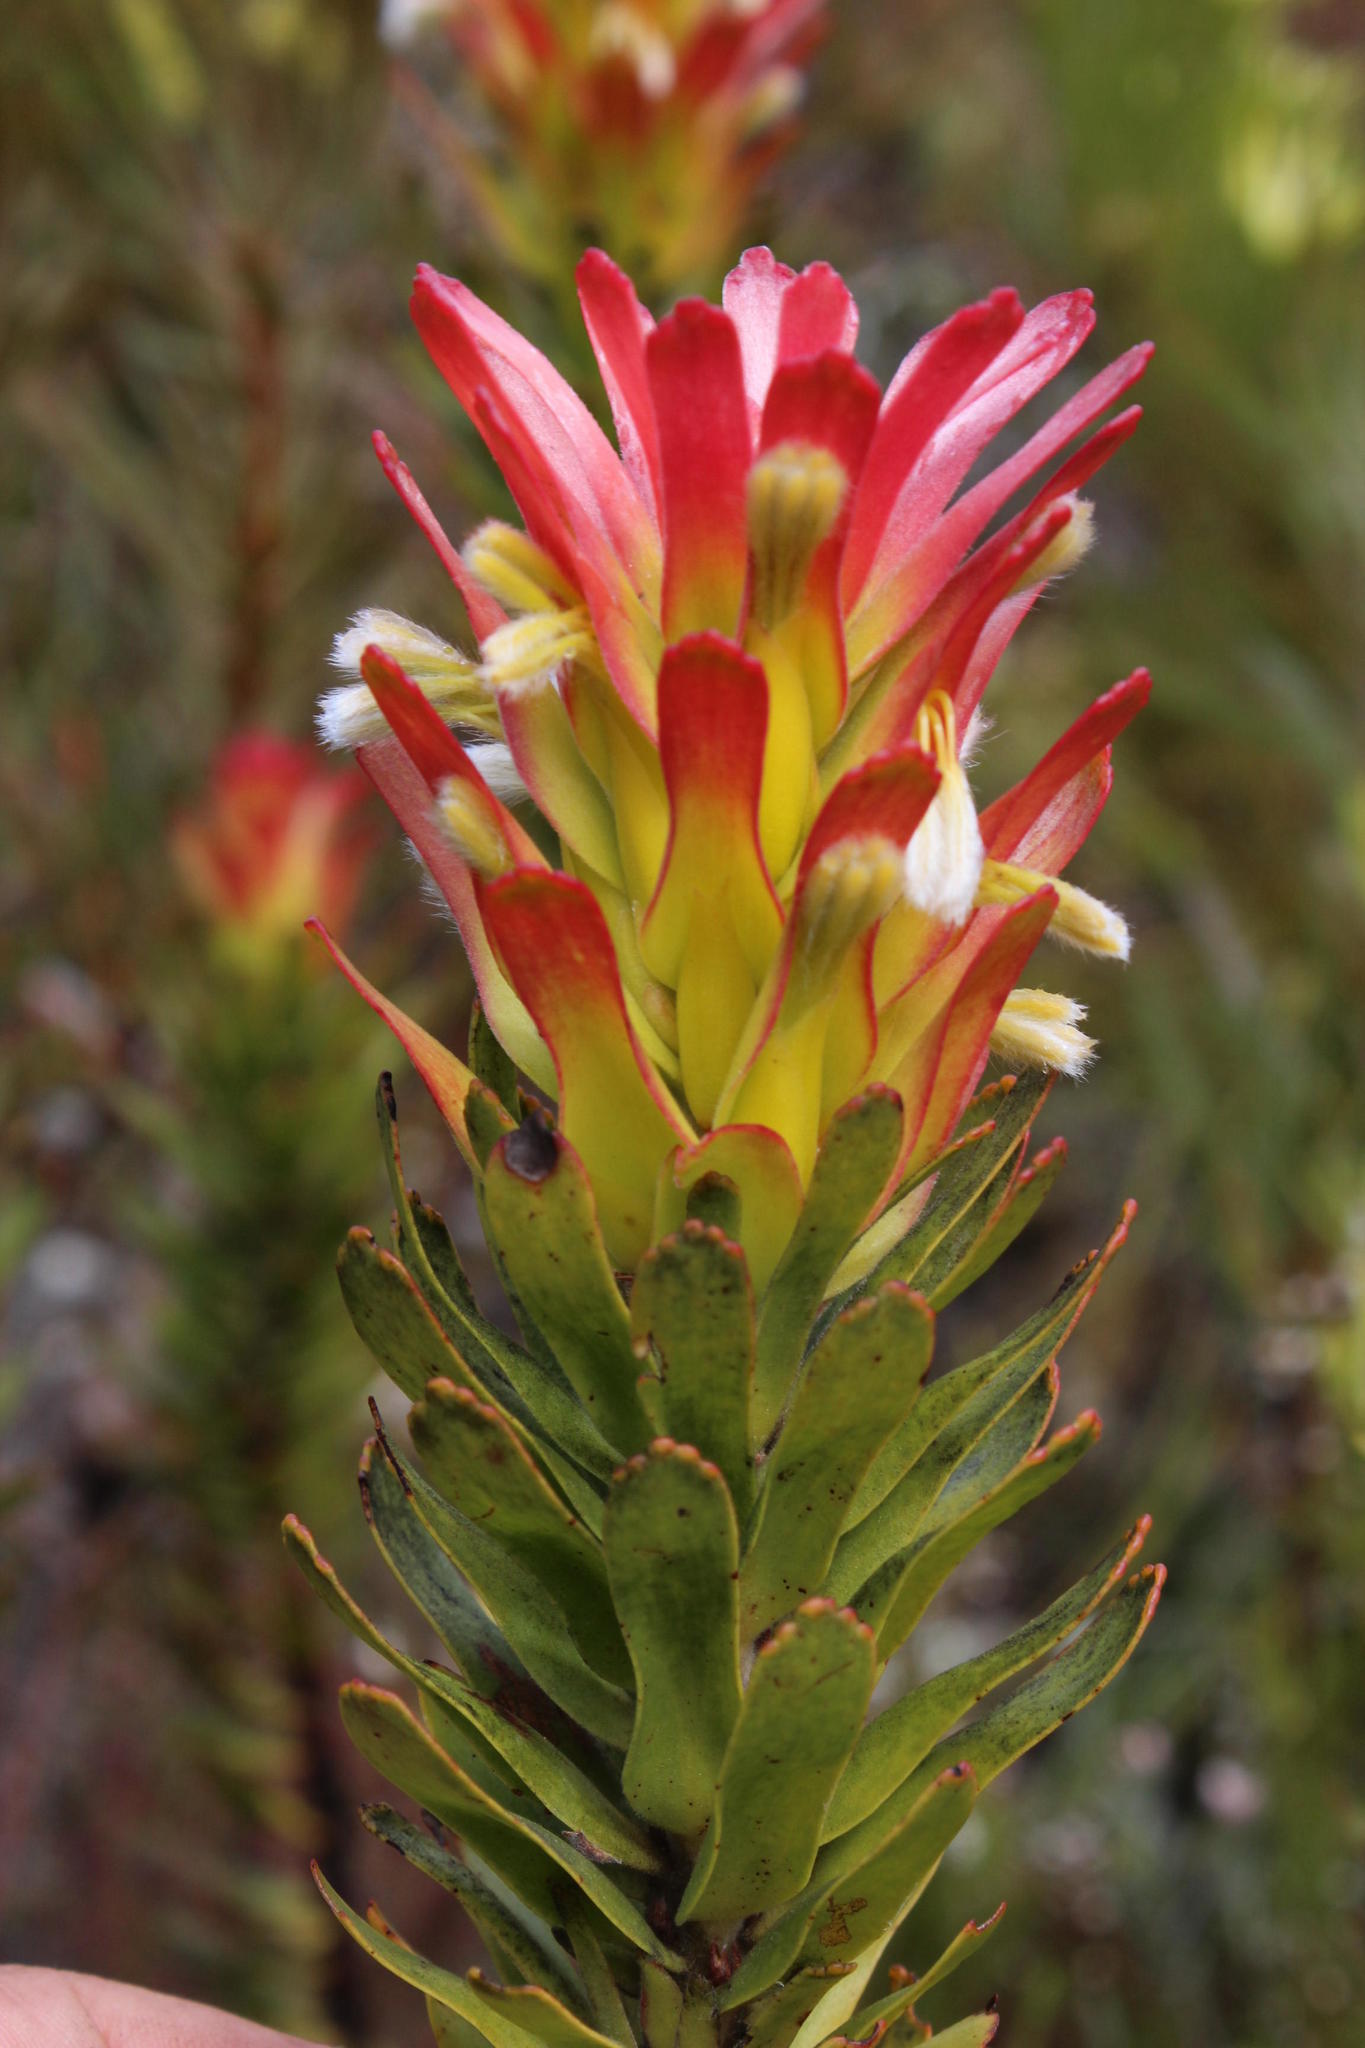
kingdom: Plantae
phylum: Tracheophyta
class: Magnoliopsida
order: Proteales
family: Proteaceae
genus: Mimetes
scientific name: Mimetes cucullatus
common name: Common pagoda
